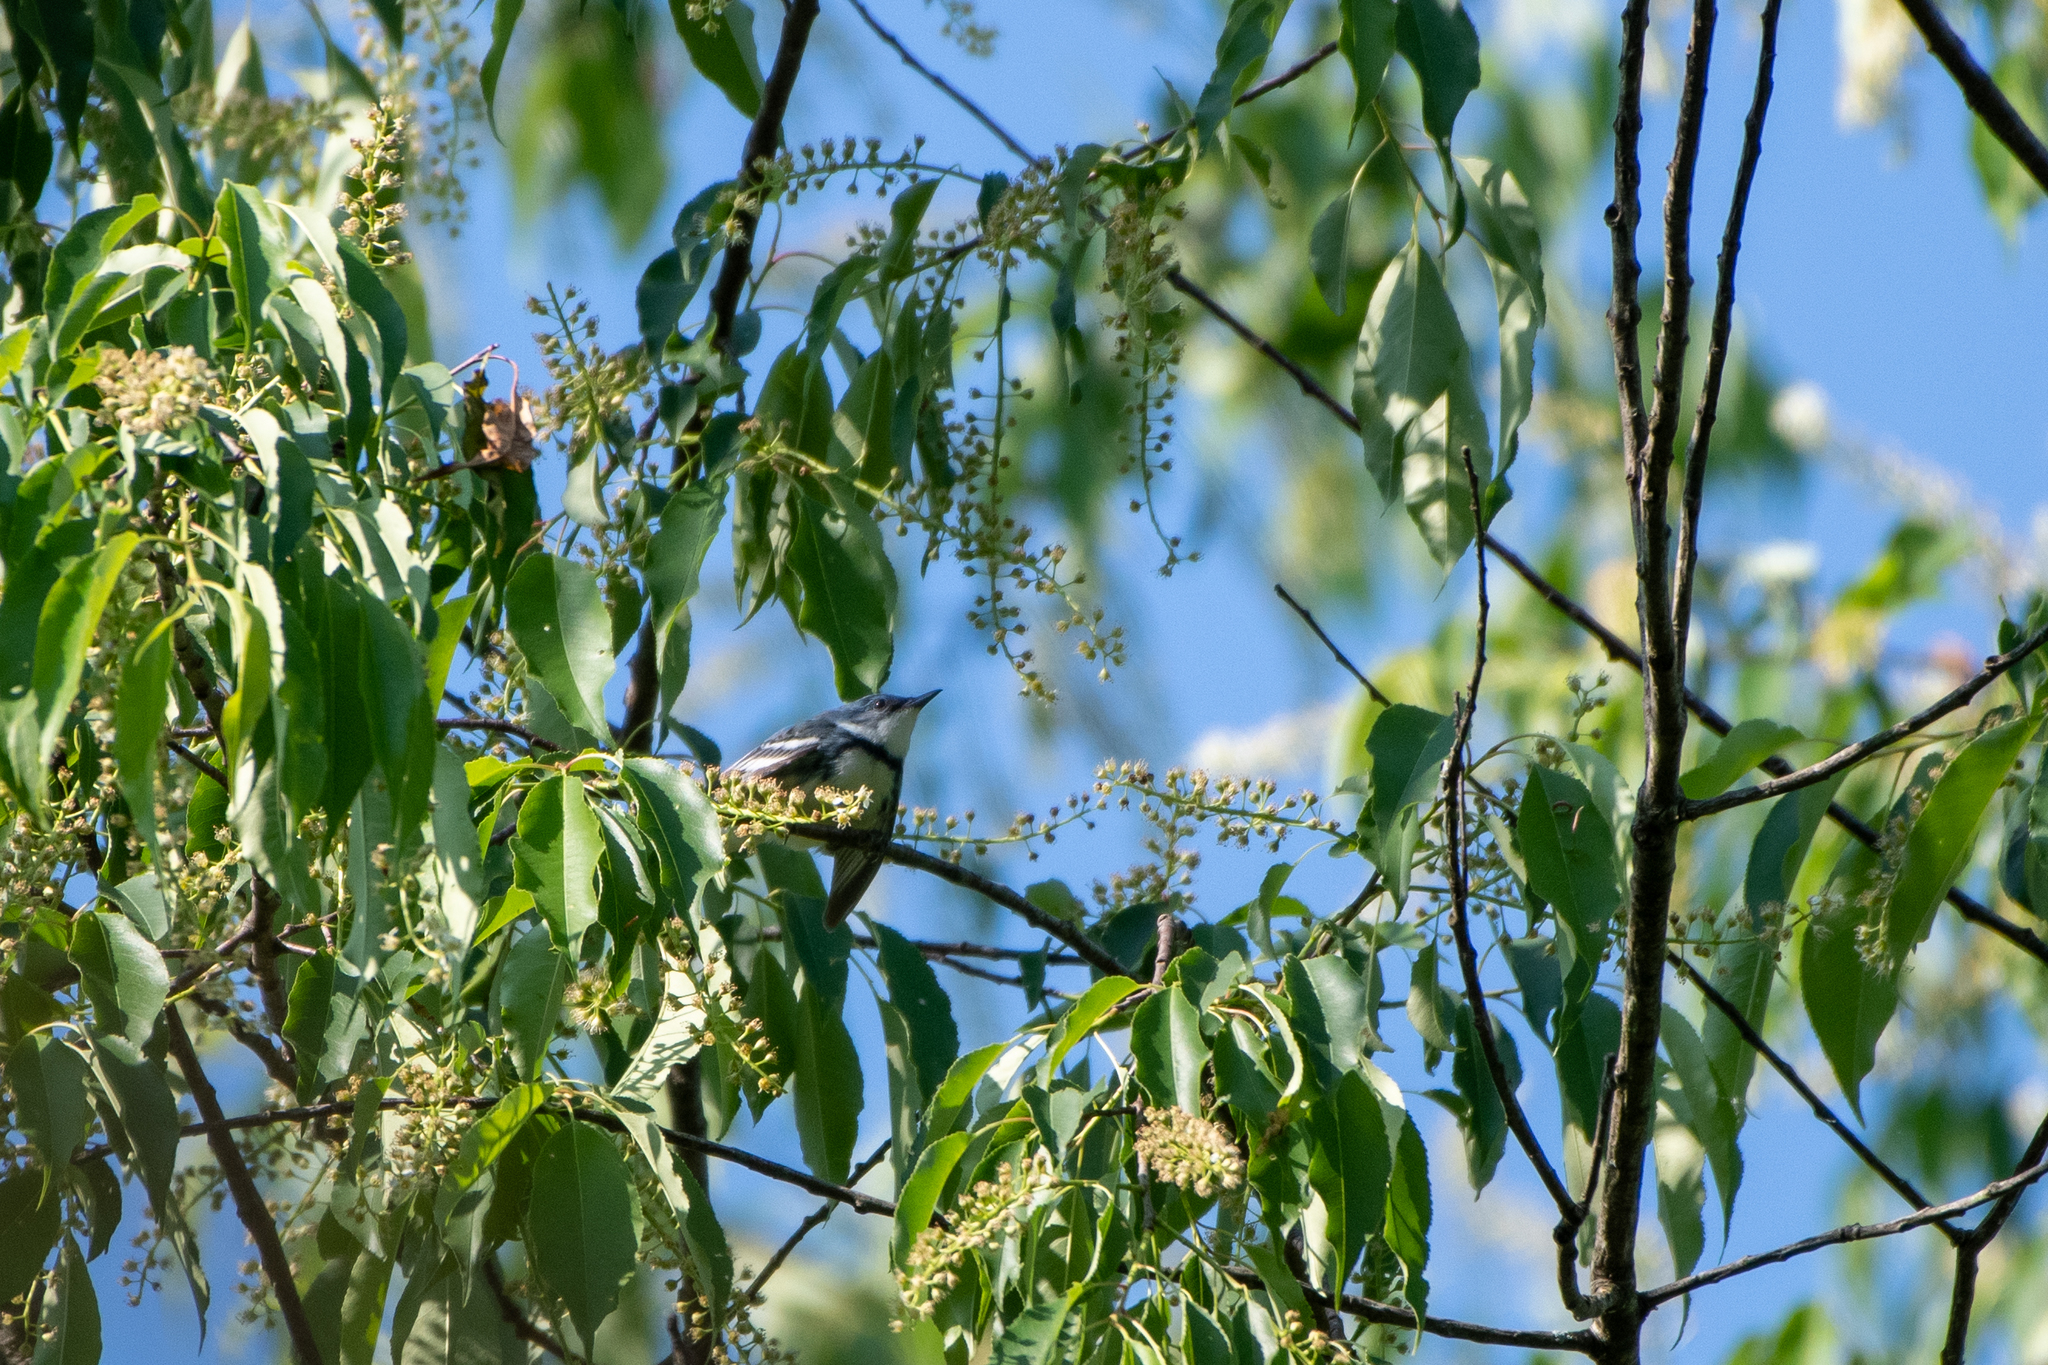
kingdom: Animalia
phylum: Chordata
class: Aves
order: Passeriformes
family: Parulidae
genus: Setophaga
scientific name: Setophaga cerulea
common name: Cerulean warbler
